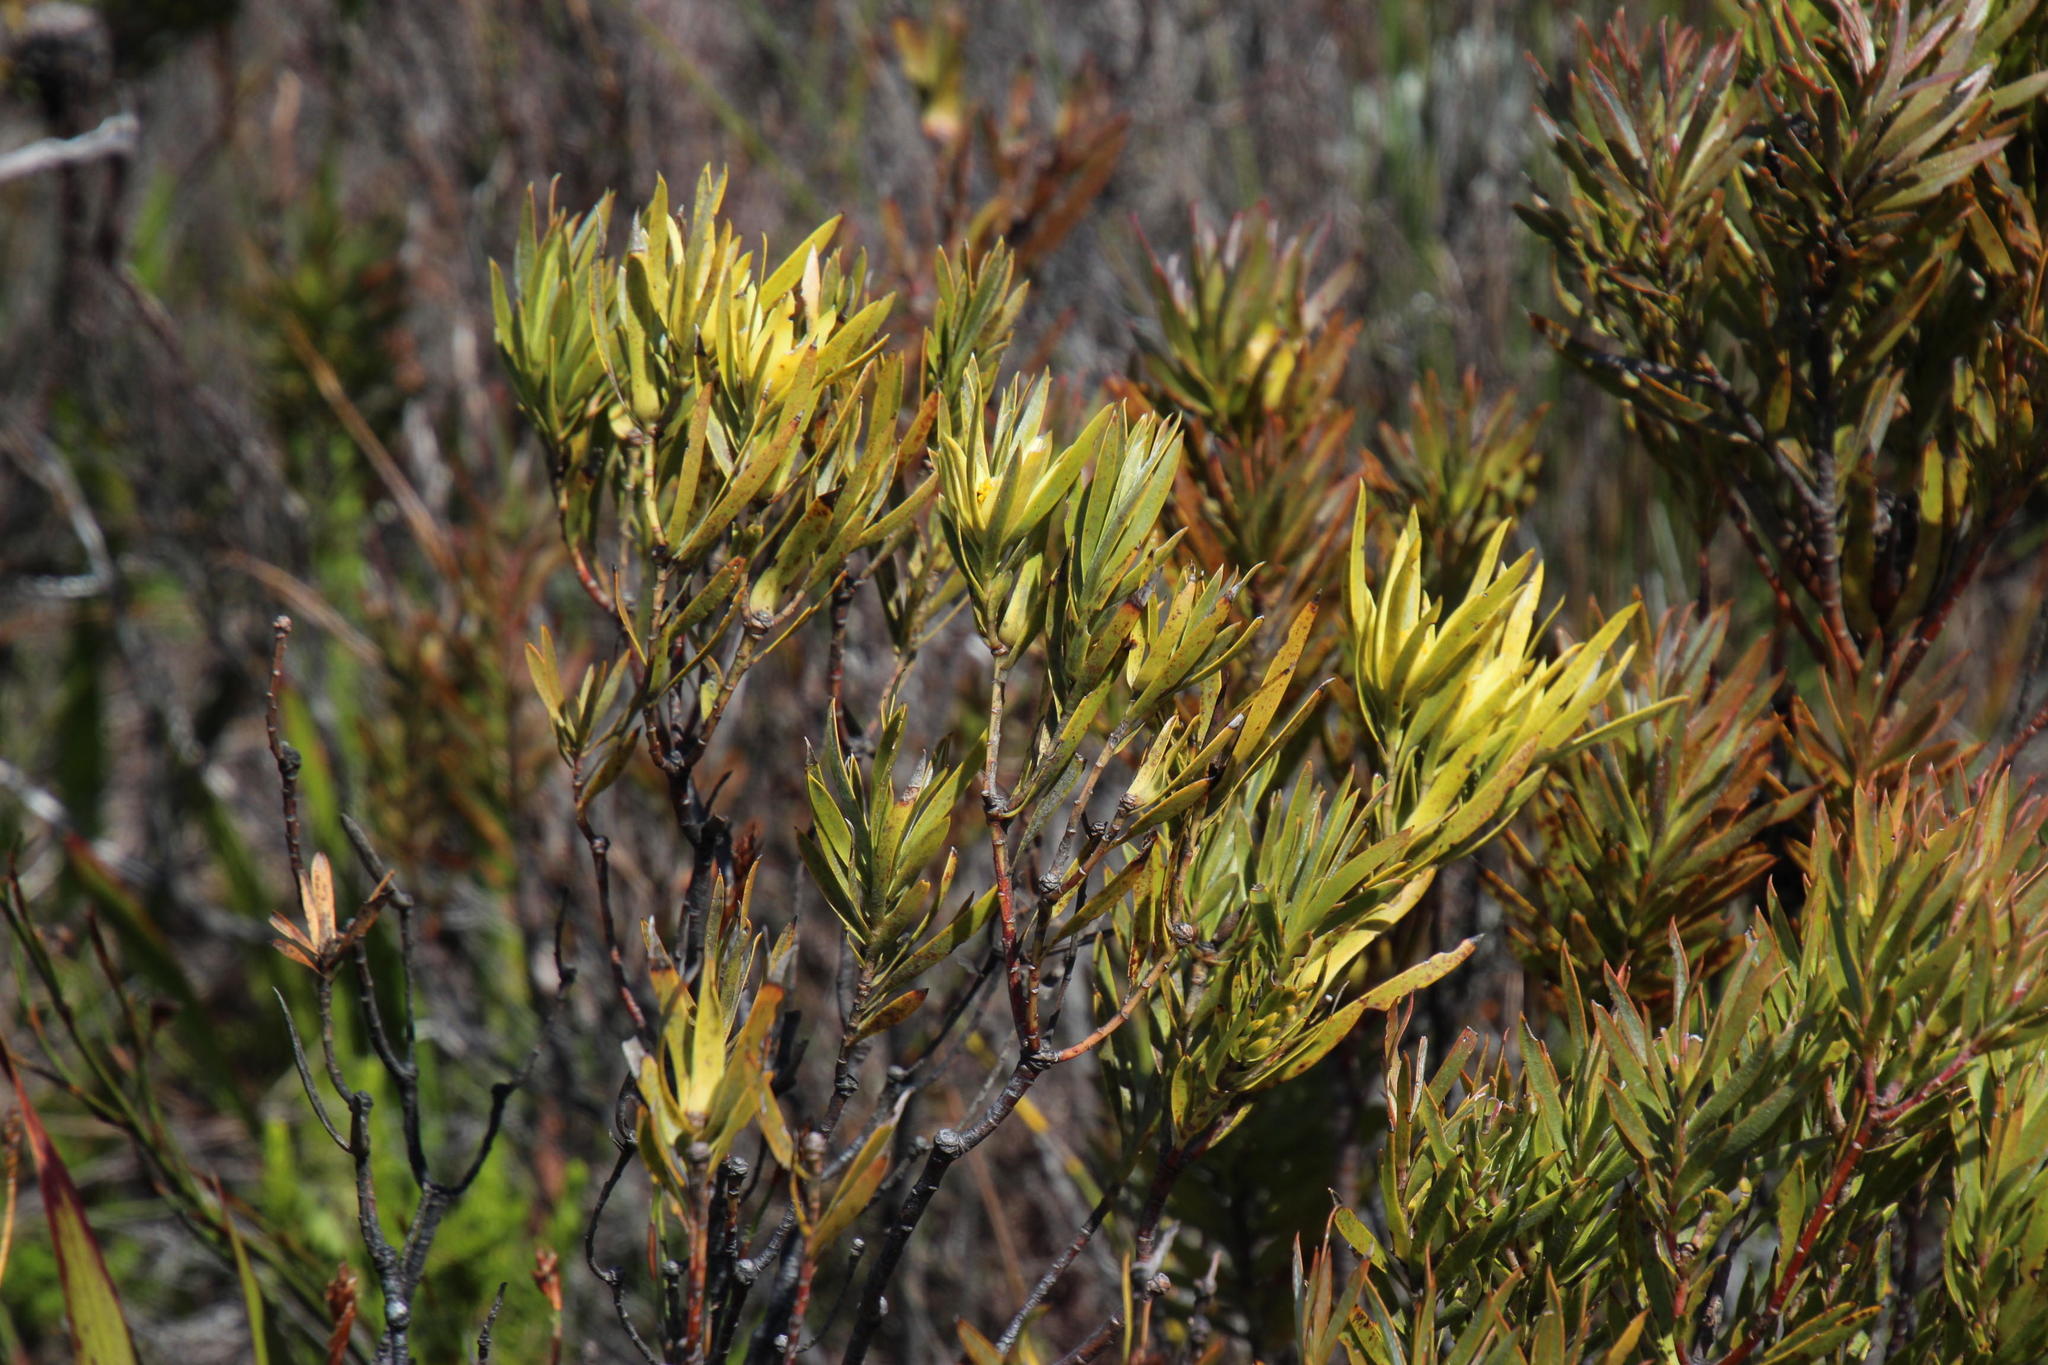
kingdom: Plantae
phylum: Tracheophyta
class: Magnoliopsida
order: Proteales
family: Proteaceae
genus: Leucadendron
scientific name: Leucadendron xanthoconus
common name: Sickle-leaf conebush
